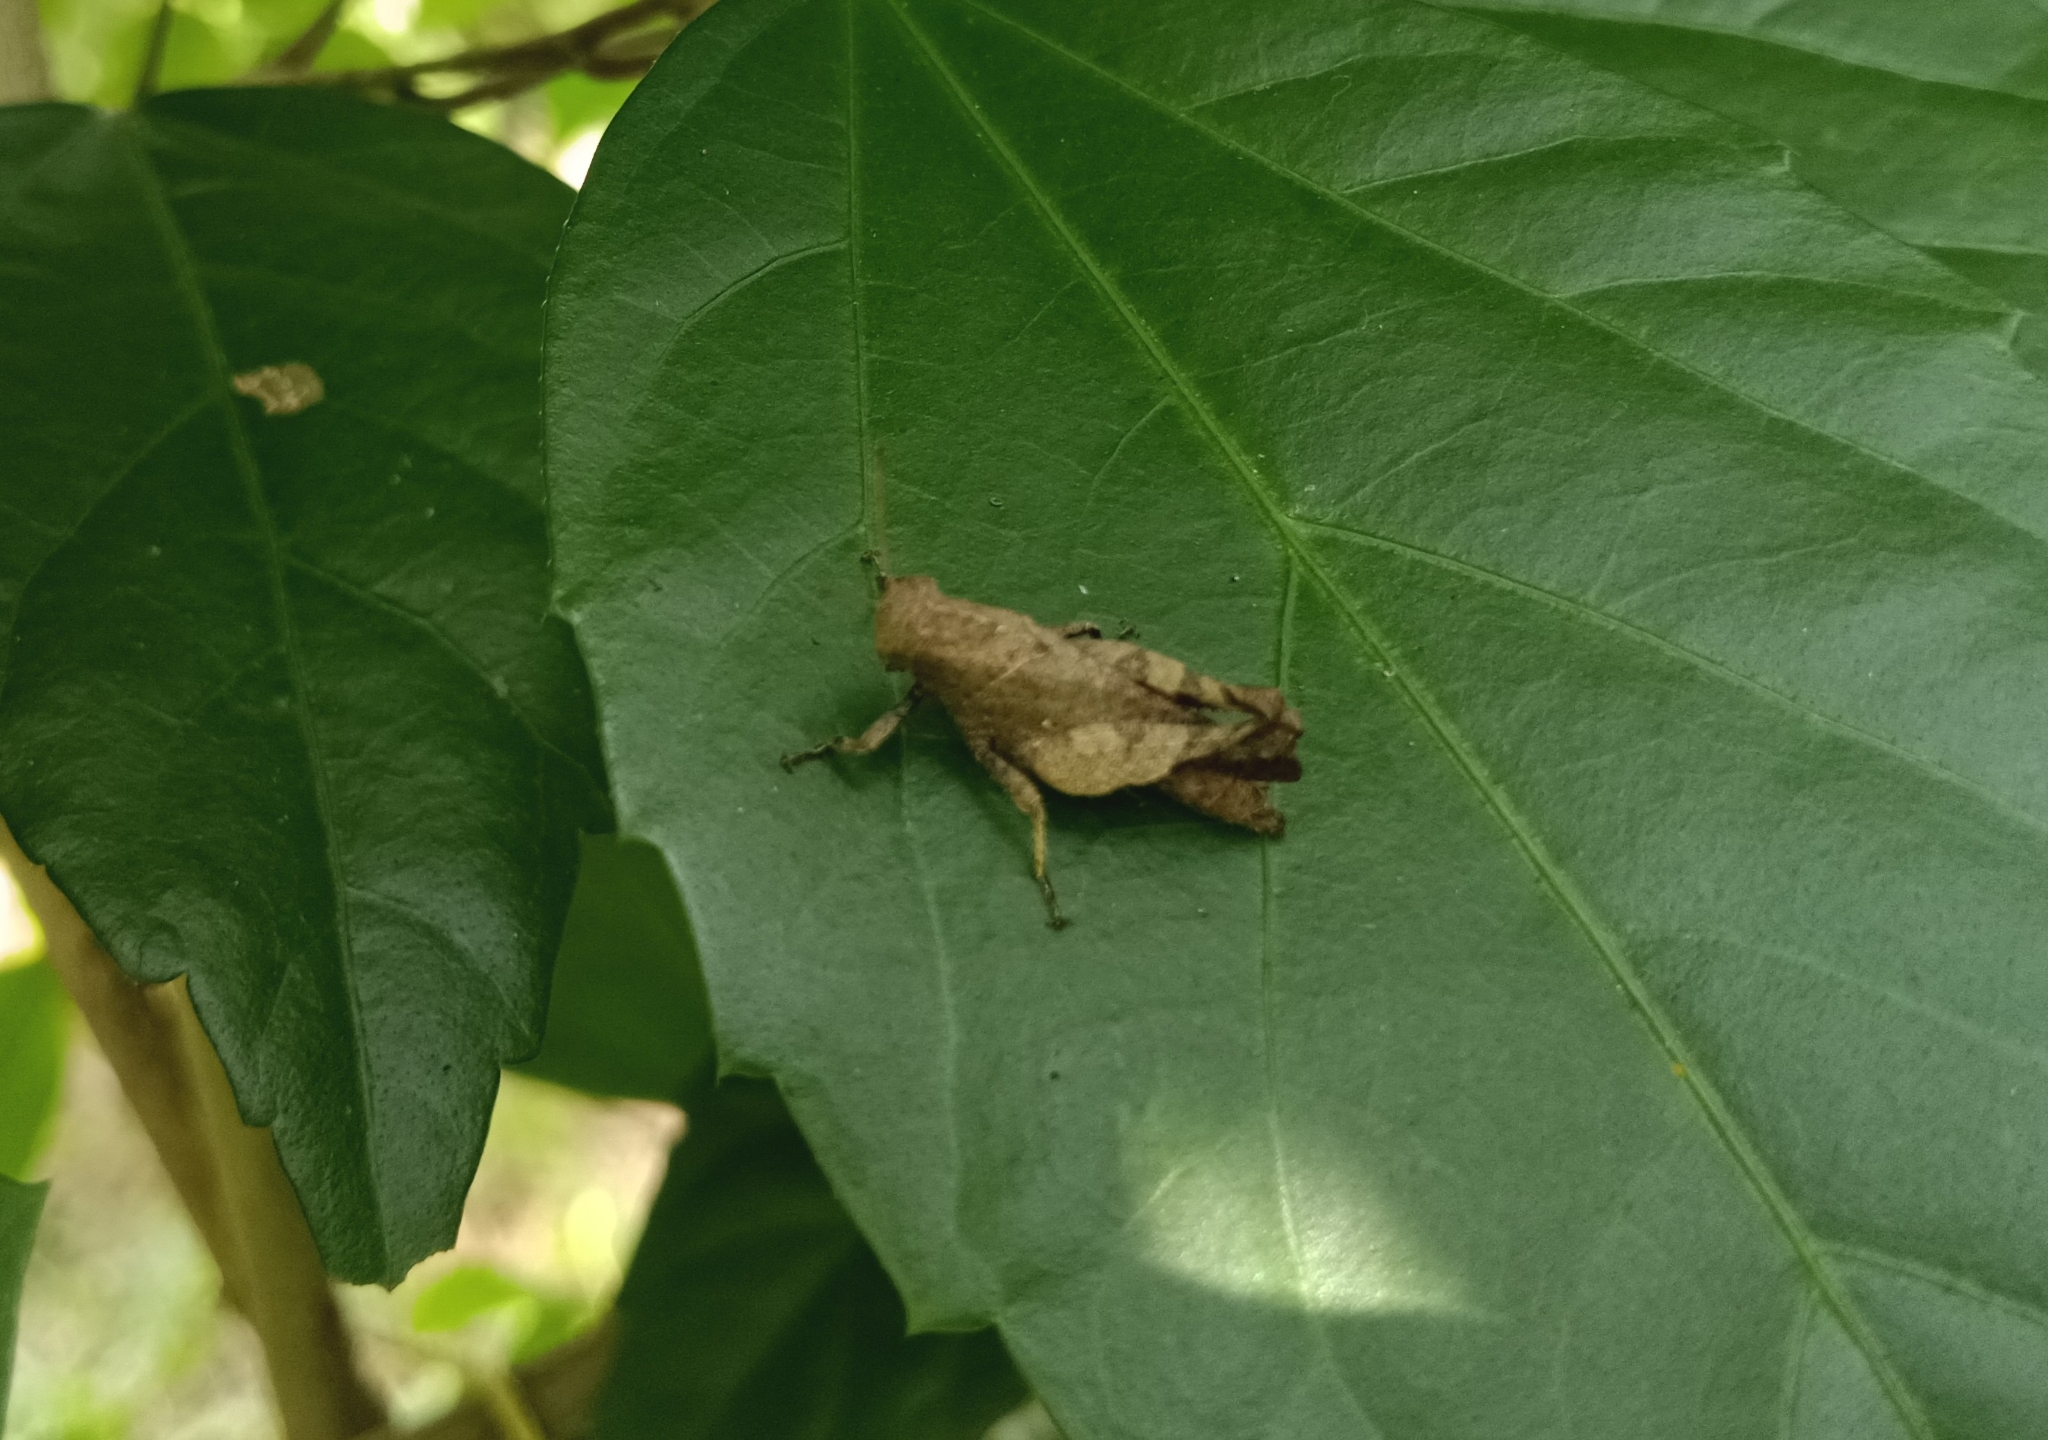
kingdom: Animalia
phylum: Arthropoda
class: Insecta
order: Orthoptera
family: Acrididae
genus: Epistaurus
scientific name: Epistaurus sinetyi
